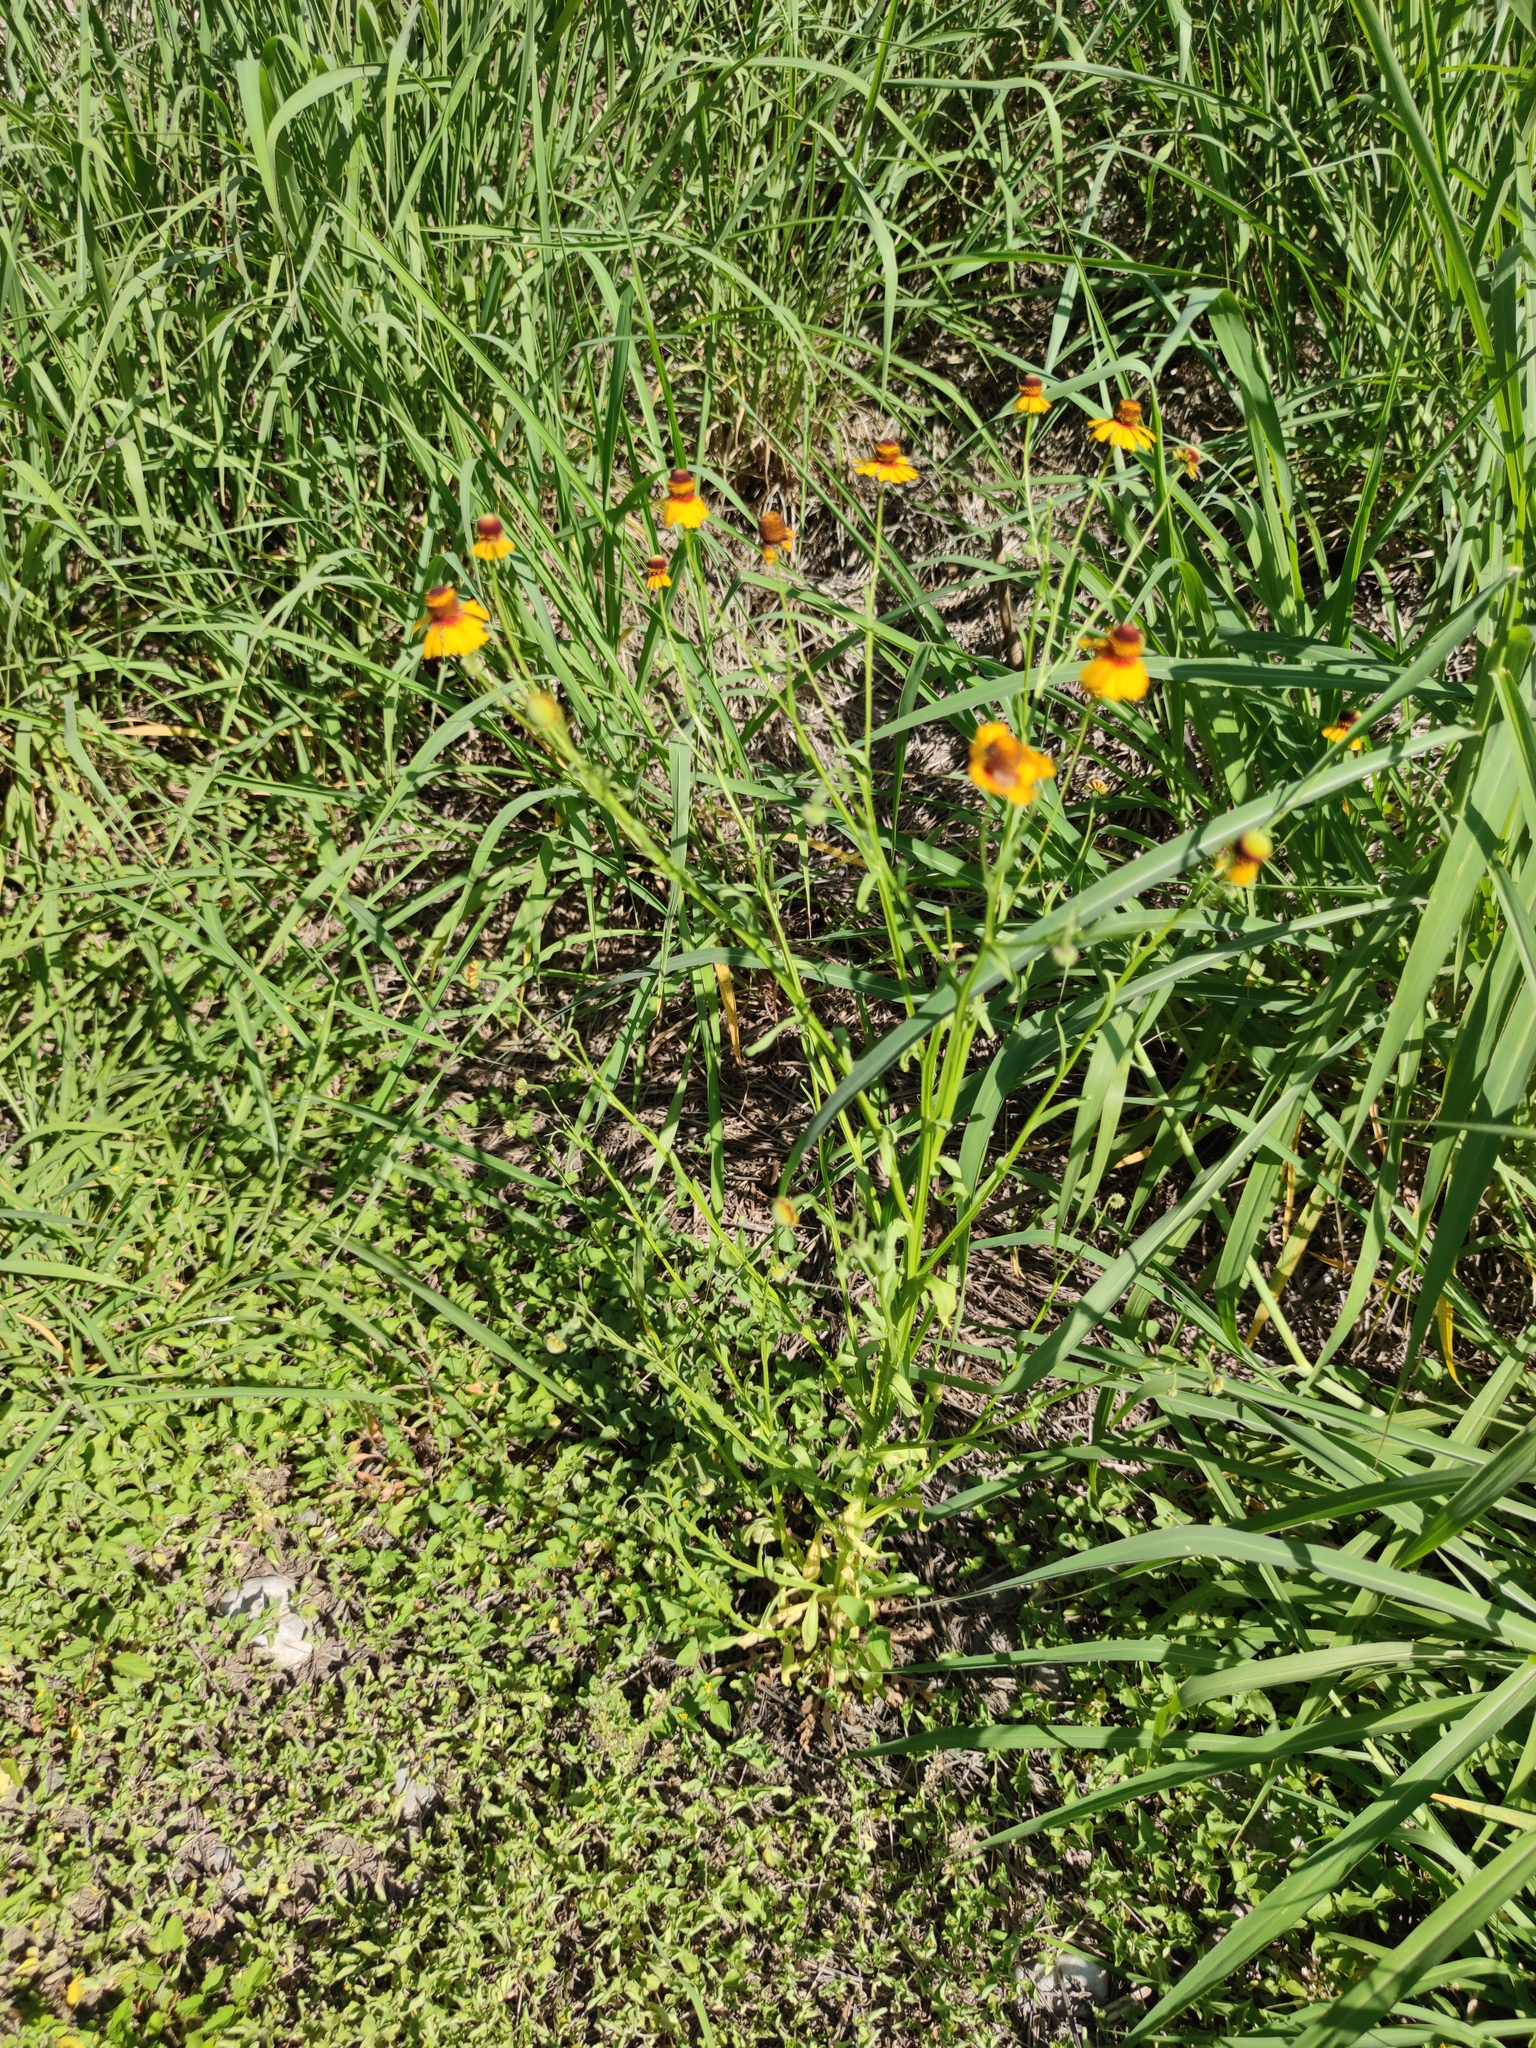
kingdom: Plantae
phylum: Tracheophyta
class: Magnoliopsida
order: Asterales
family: Asteraceae
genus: Helenium
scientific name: Helenium amphibolum
